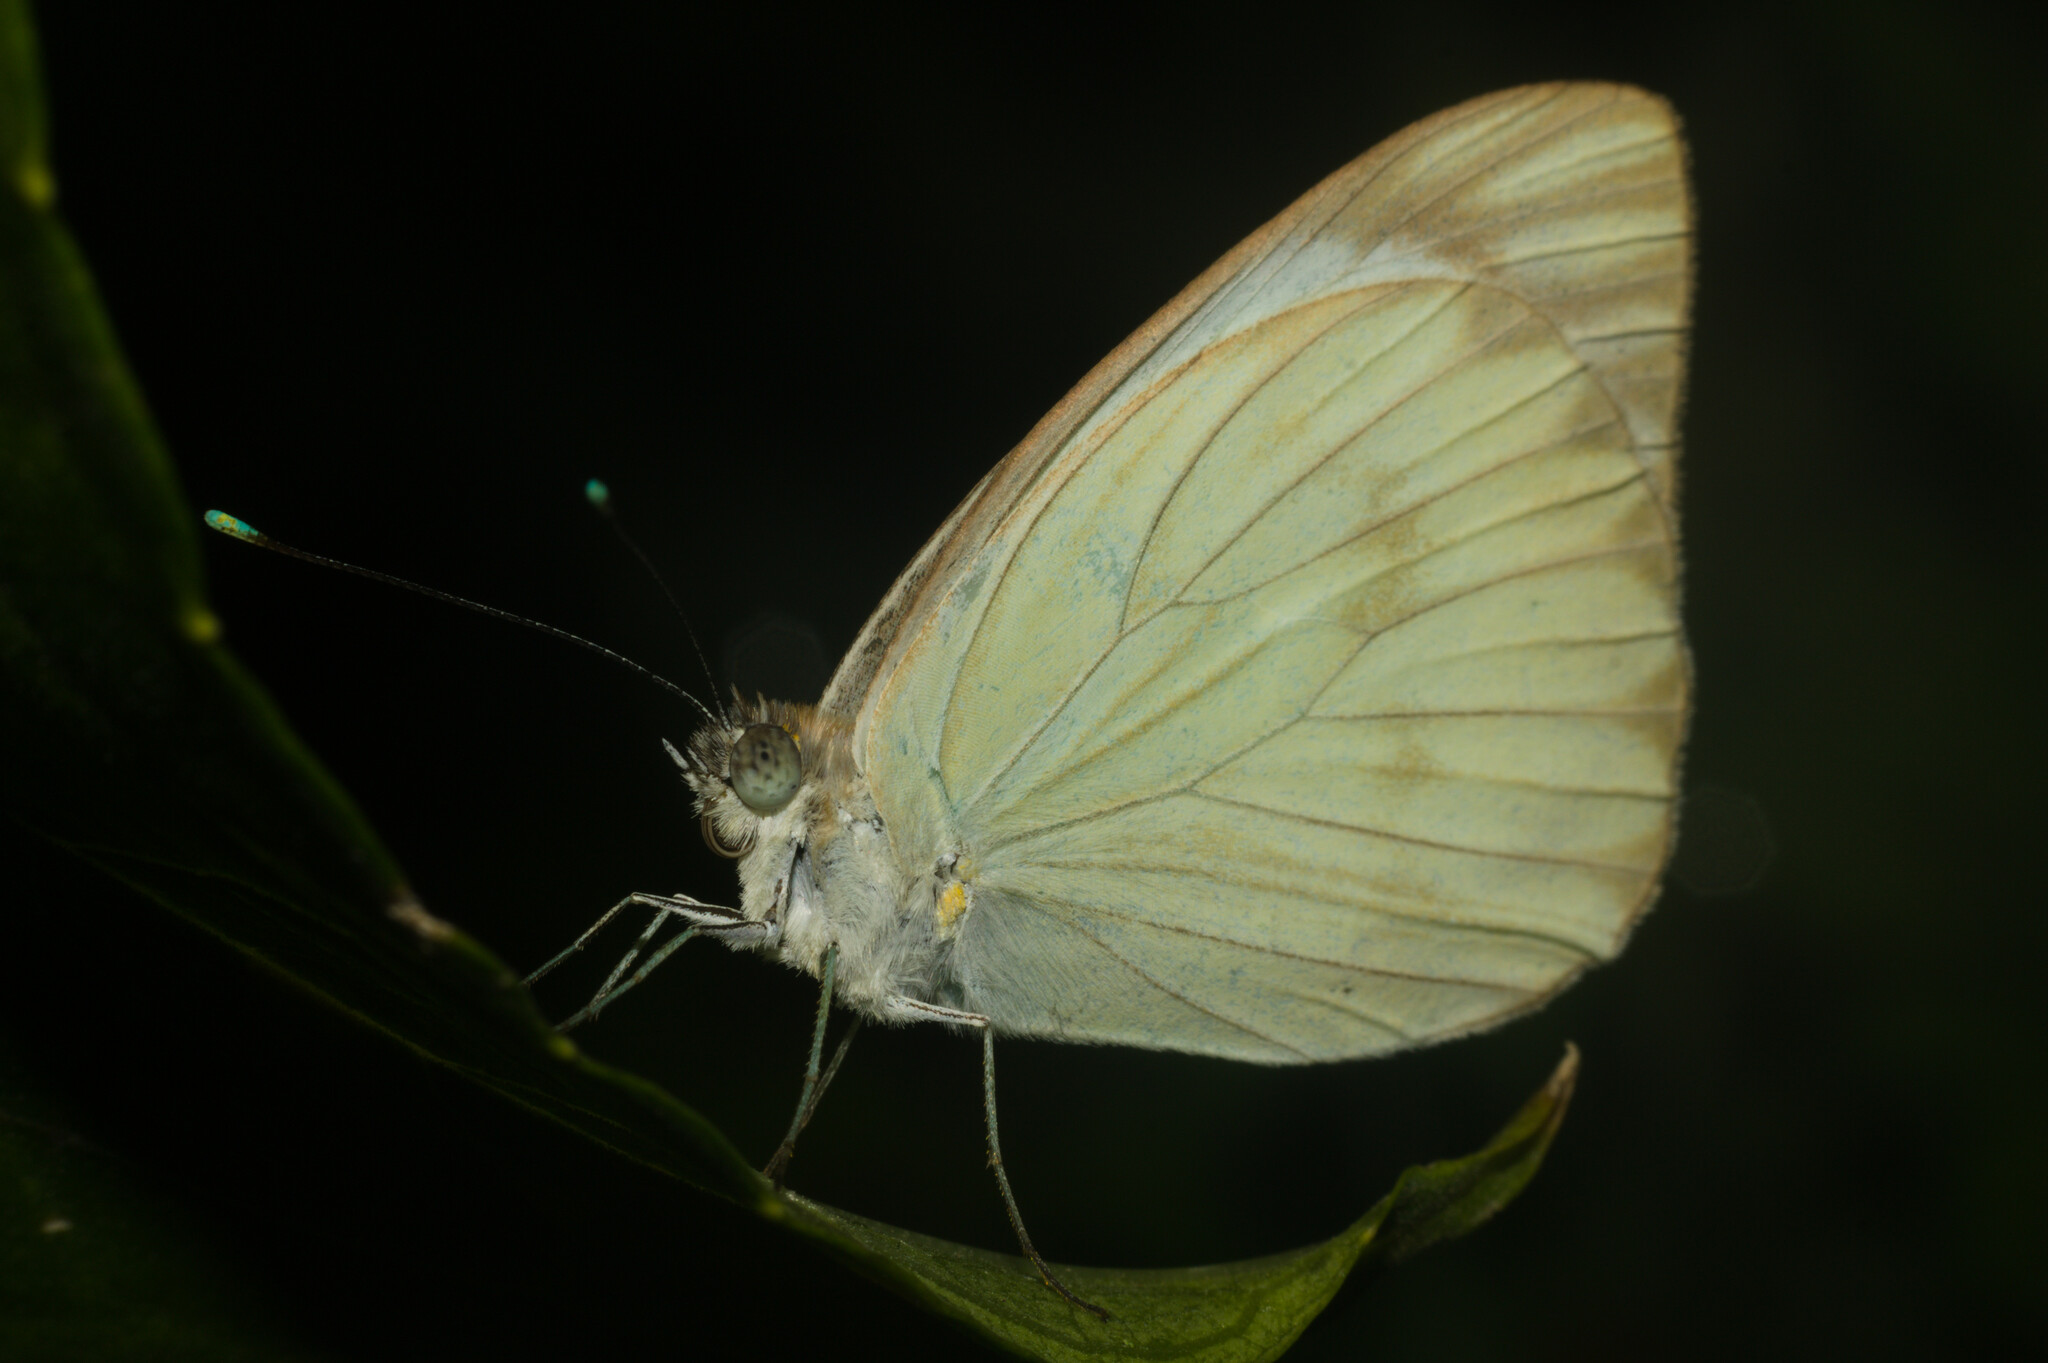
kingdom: Animalia
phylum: Arthropoda
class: Insecta
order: Lepidoptera
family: Pieridae
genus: Ascia
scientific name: Ascia monuste
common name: Great southern white
